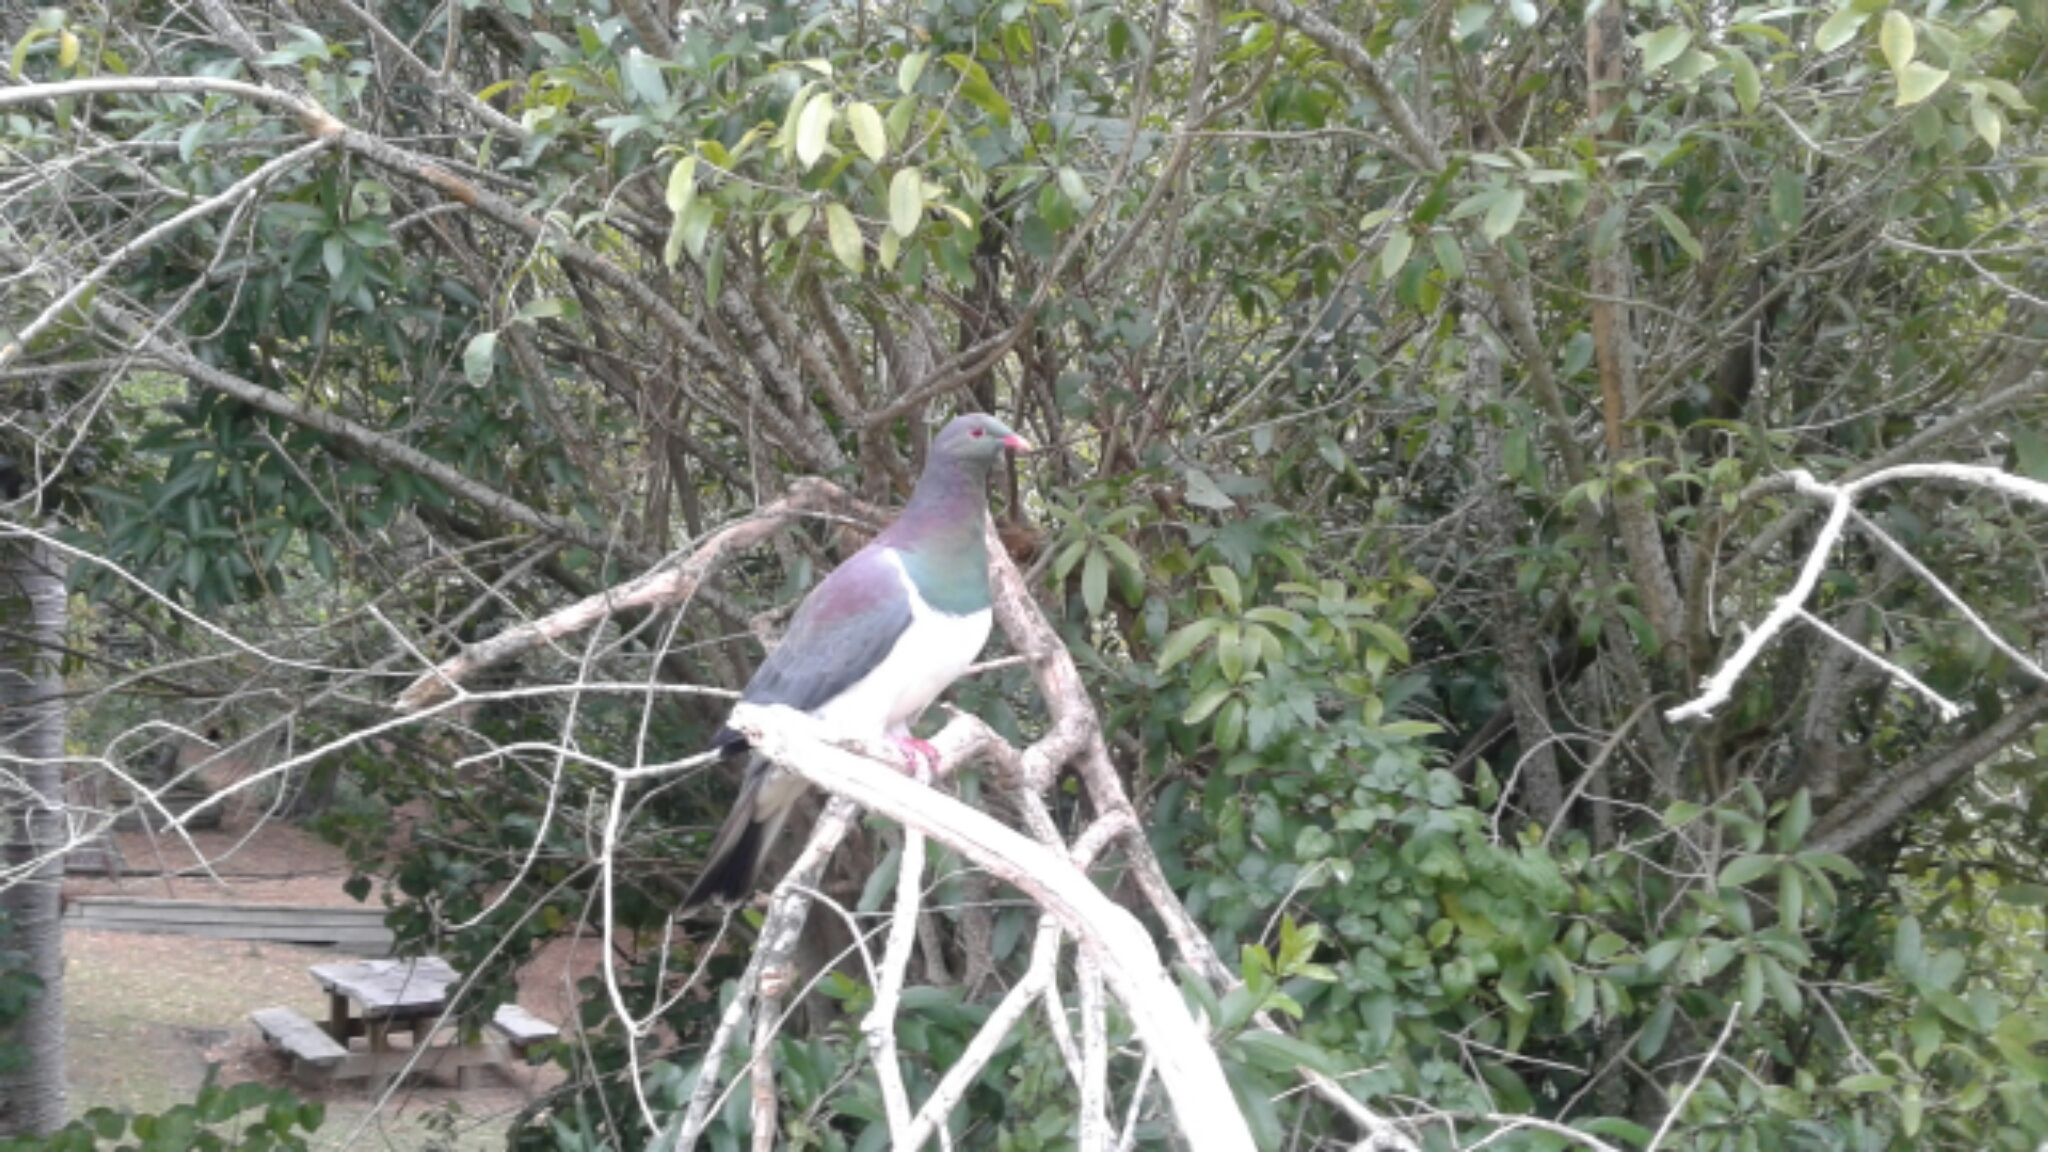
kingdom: Animalia
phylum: Chordata
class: Aves
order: Columbiformes
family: Columbidae
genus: Hemiphaga
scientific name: Hemiphaga novaeseelandiae
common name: New zealand pigeon
